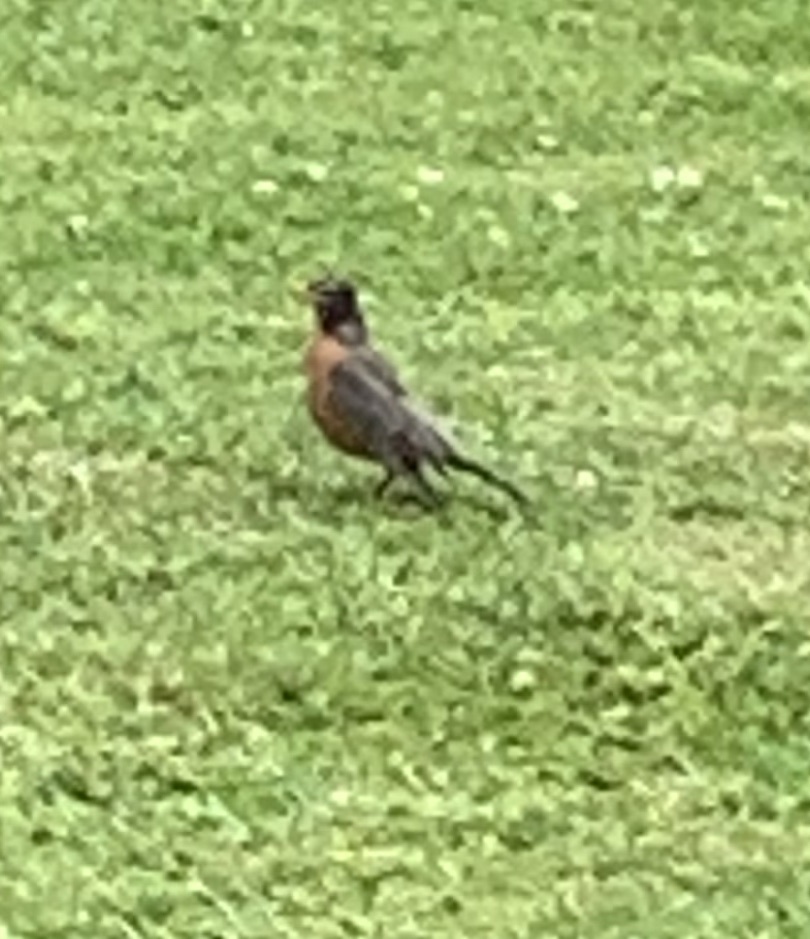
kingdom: Animalia
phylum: Chordata
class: Aves
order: Passeriformes
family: Turdidae
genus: Turdus
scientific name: Turdus migratorius
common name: American robin
